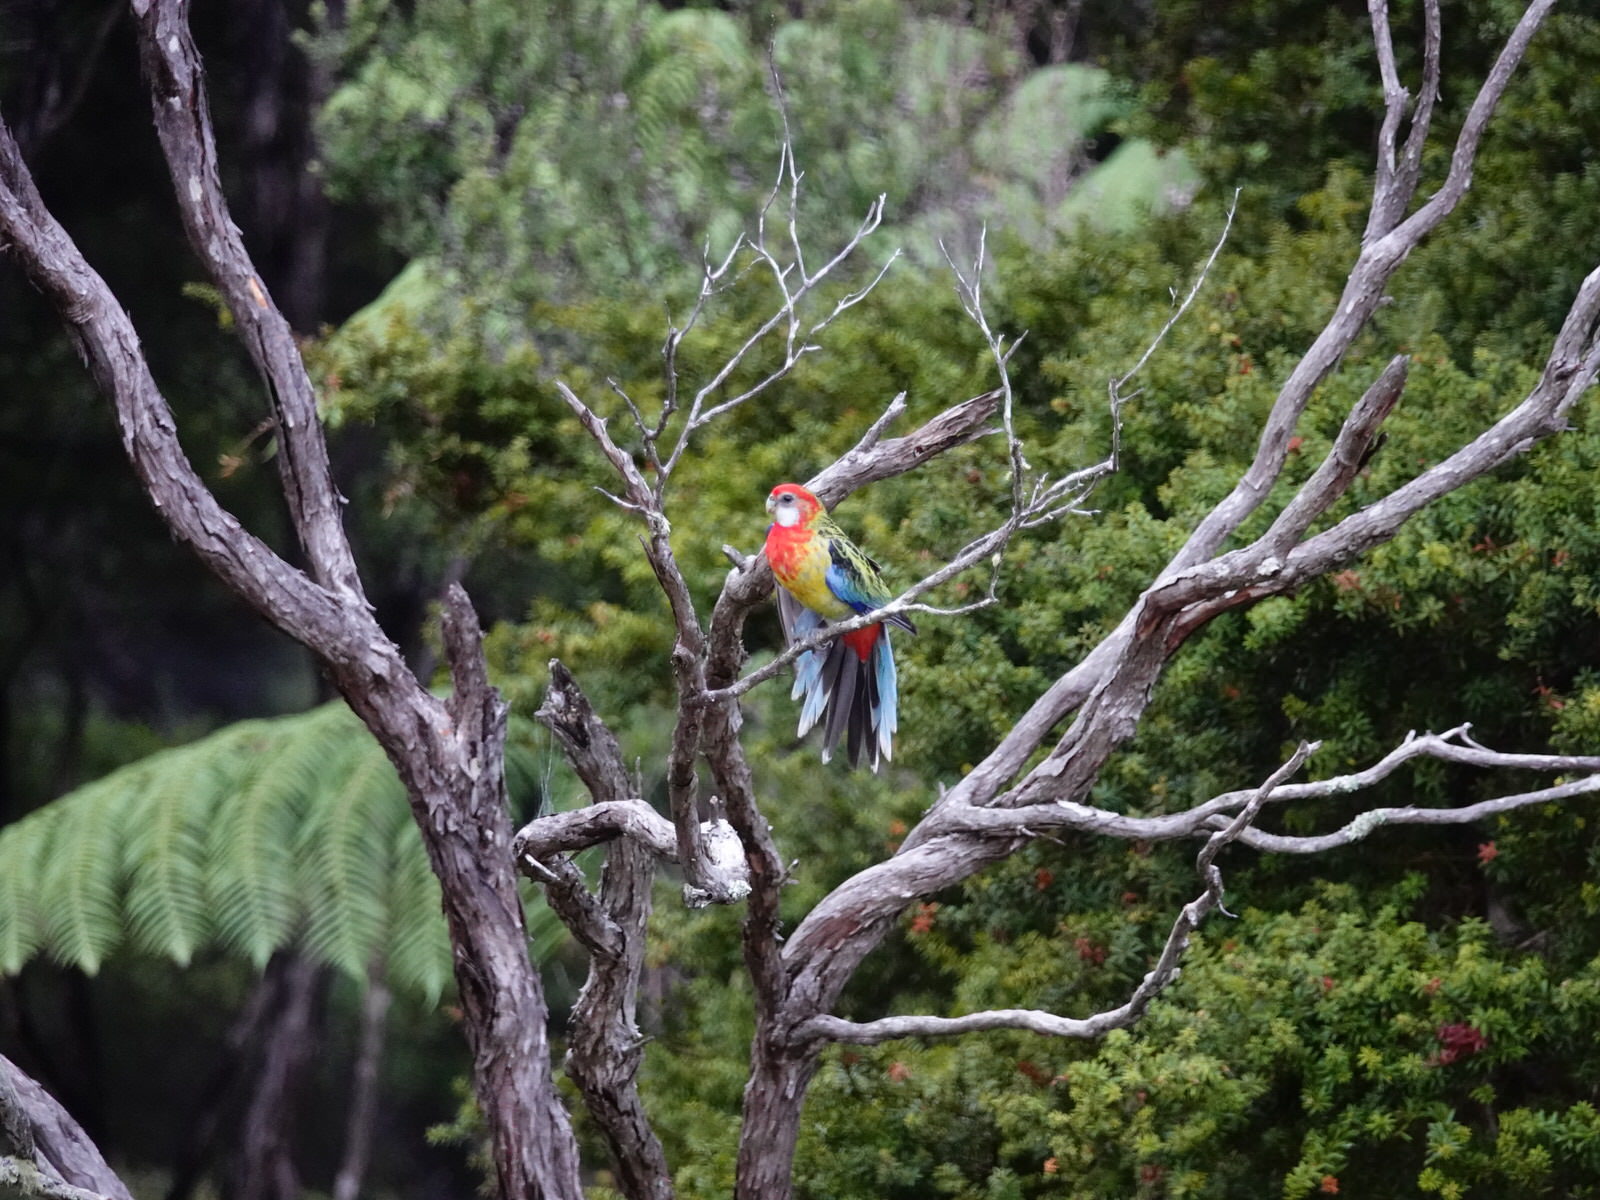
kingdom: Animalia
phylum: Chordata
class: Aves
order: Psittaciformes
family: Psittacidae
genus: Platycercus
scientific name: Platycercus eximius
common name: Eastern rosella
